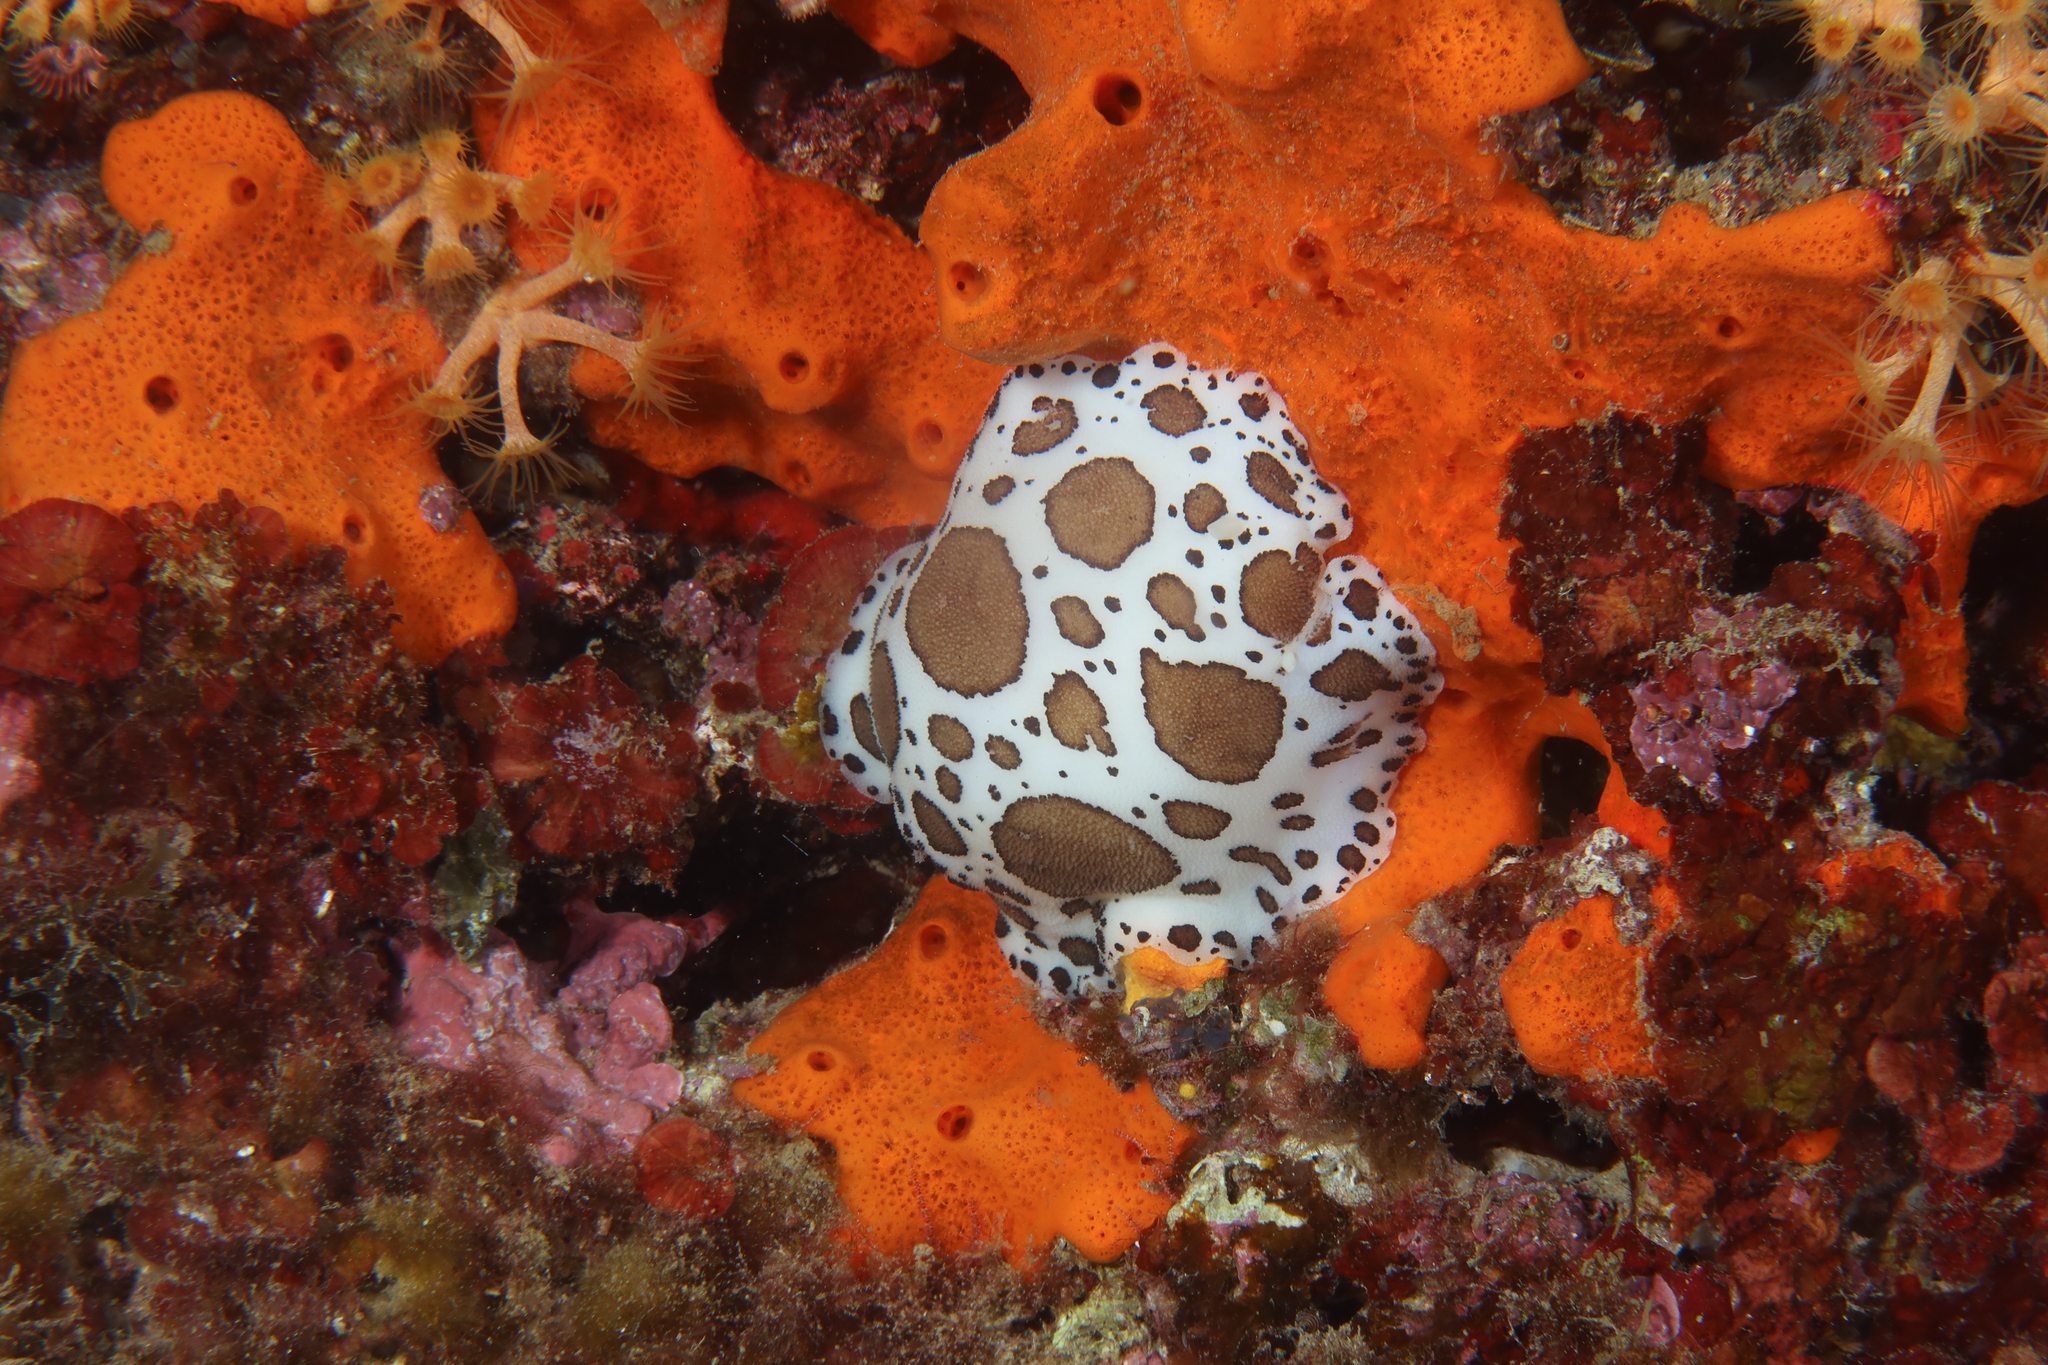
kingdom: Animalia
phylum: Mollusca
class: Gastropoda
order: Nudibranchia
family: Discodorididae
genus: Peltodoris
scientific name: Peltodoris atromaculata
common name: Swiss cow nudibranch
